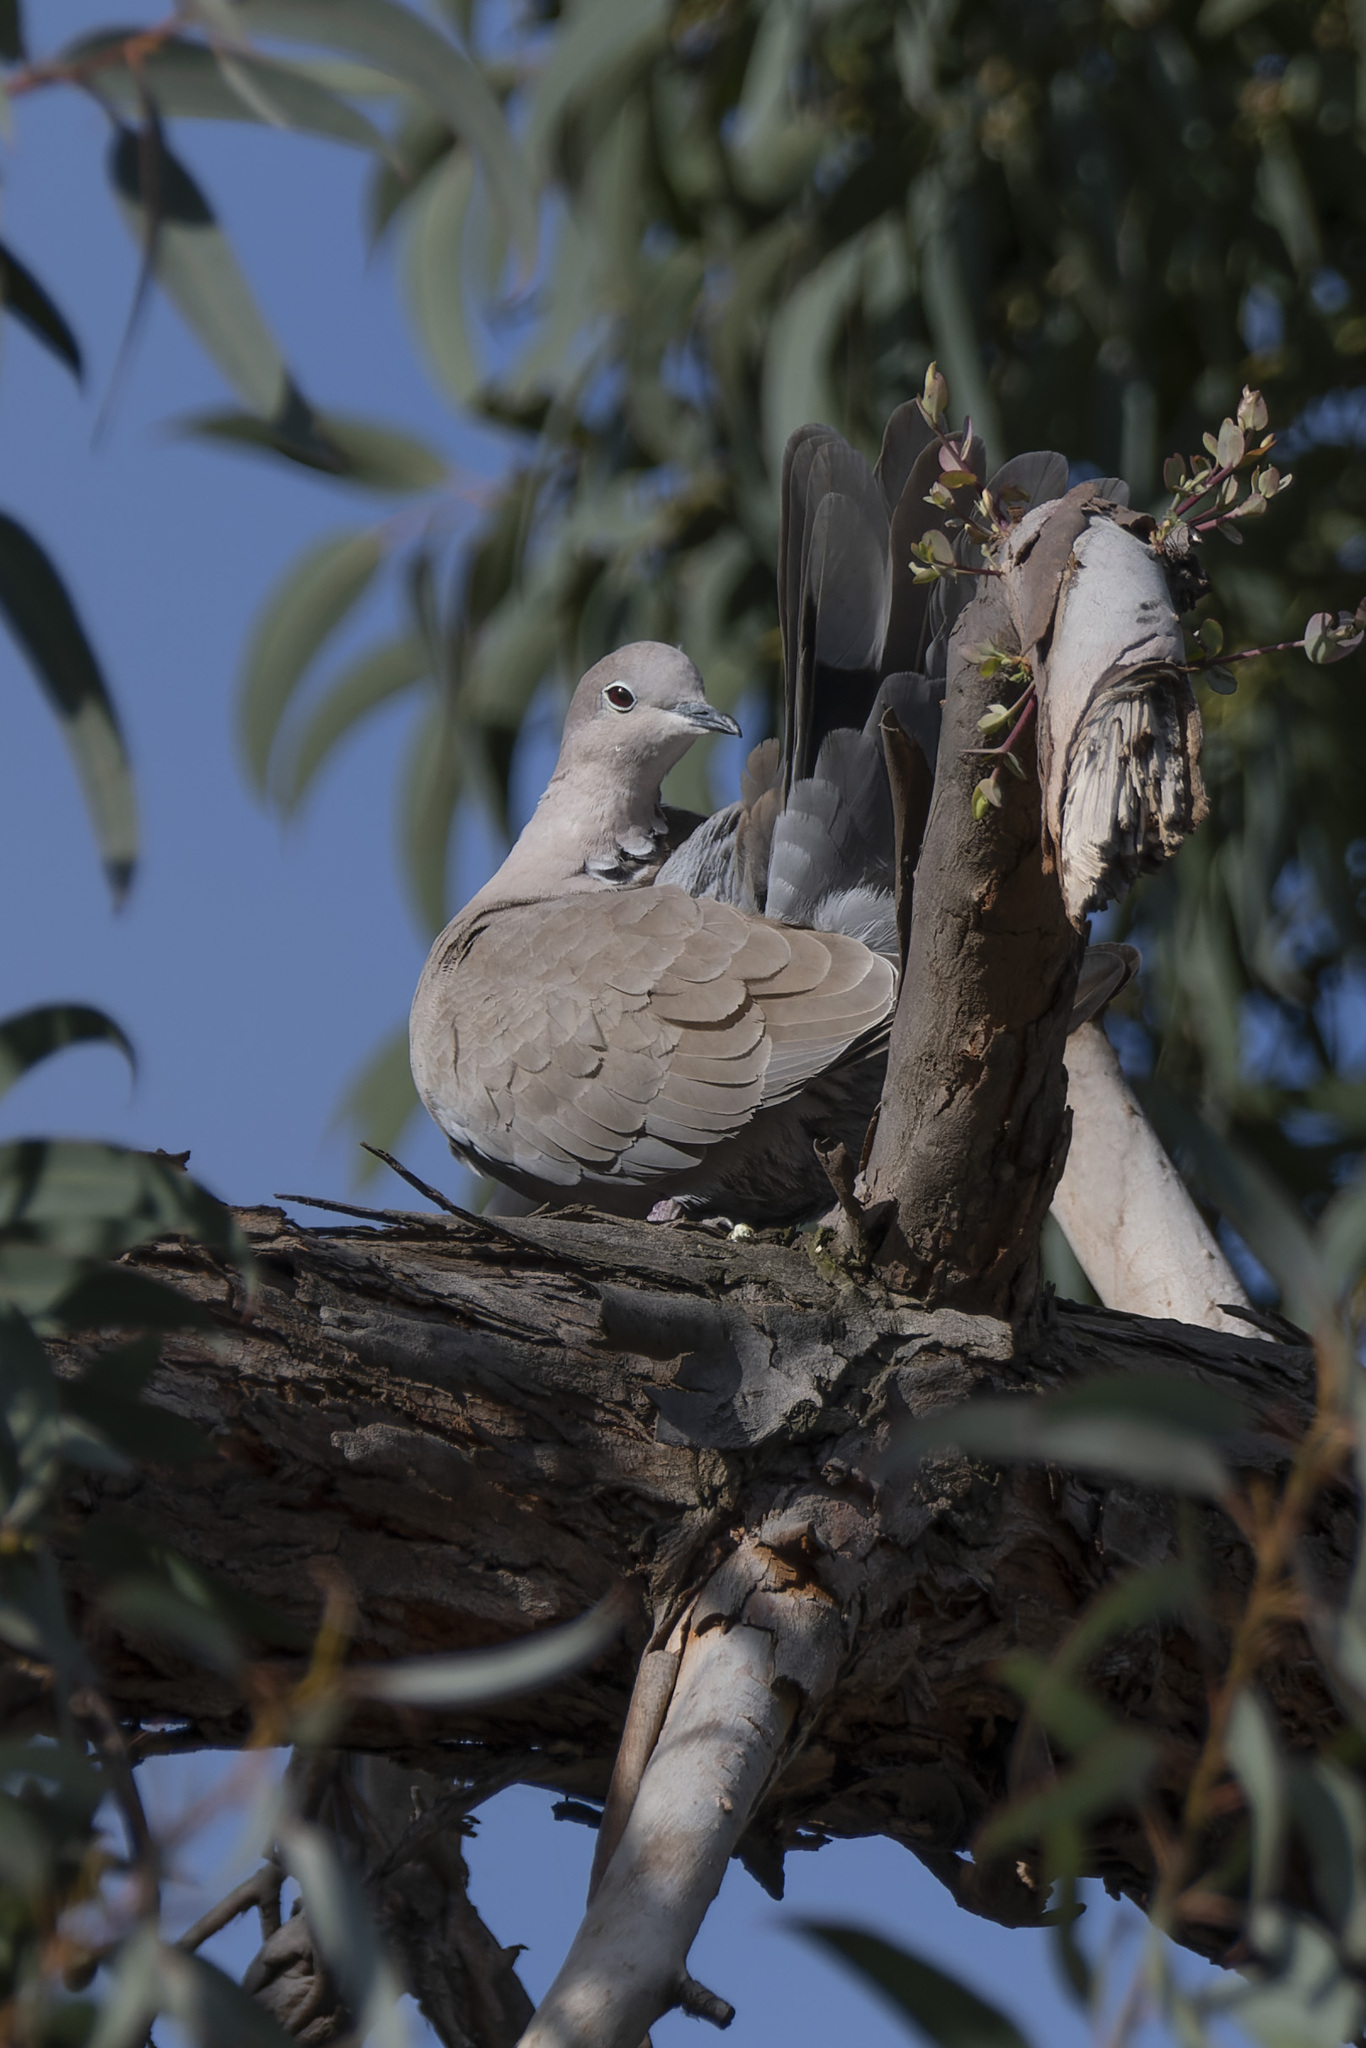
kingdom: Animalia
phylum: Chordata
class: Aves
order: Columbiformes
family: Columbidae
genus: Streptopelia
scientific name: Streptopelia decaocto
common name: Eurasian collared dove
